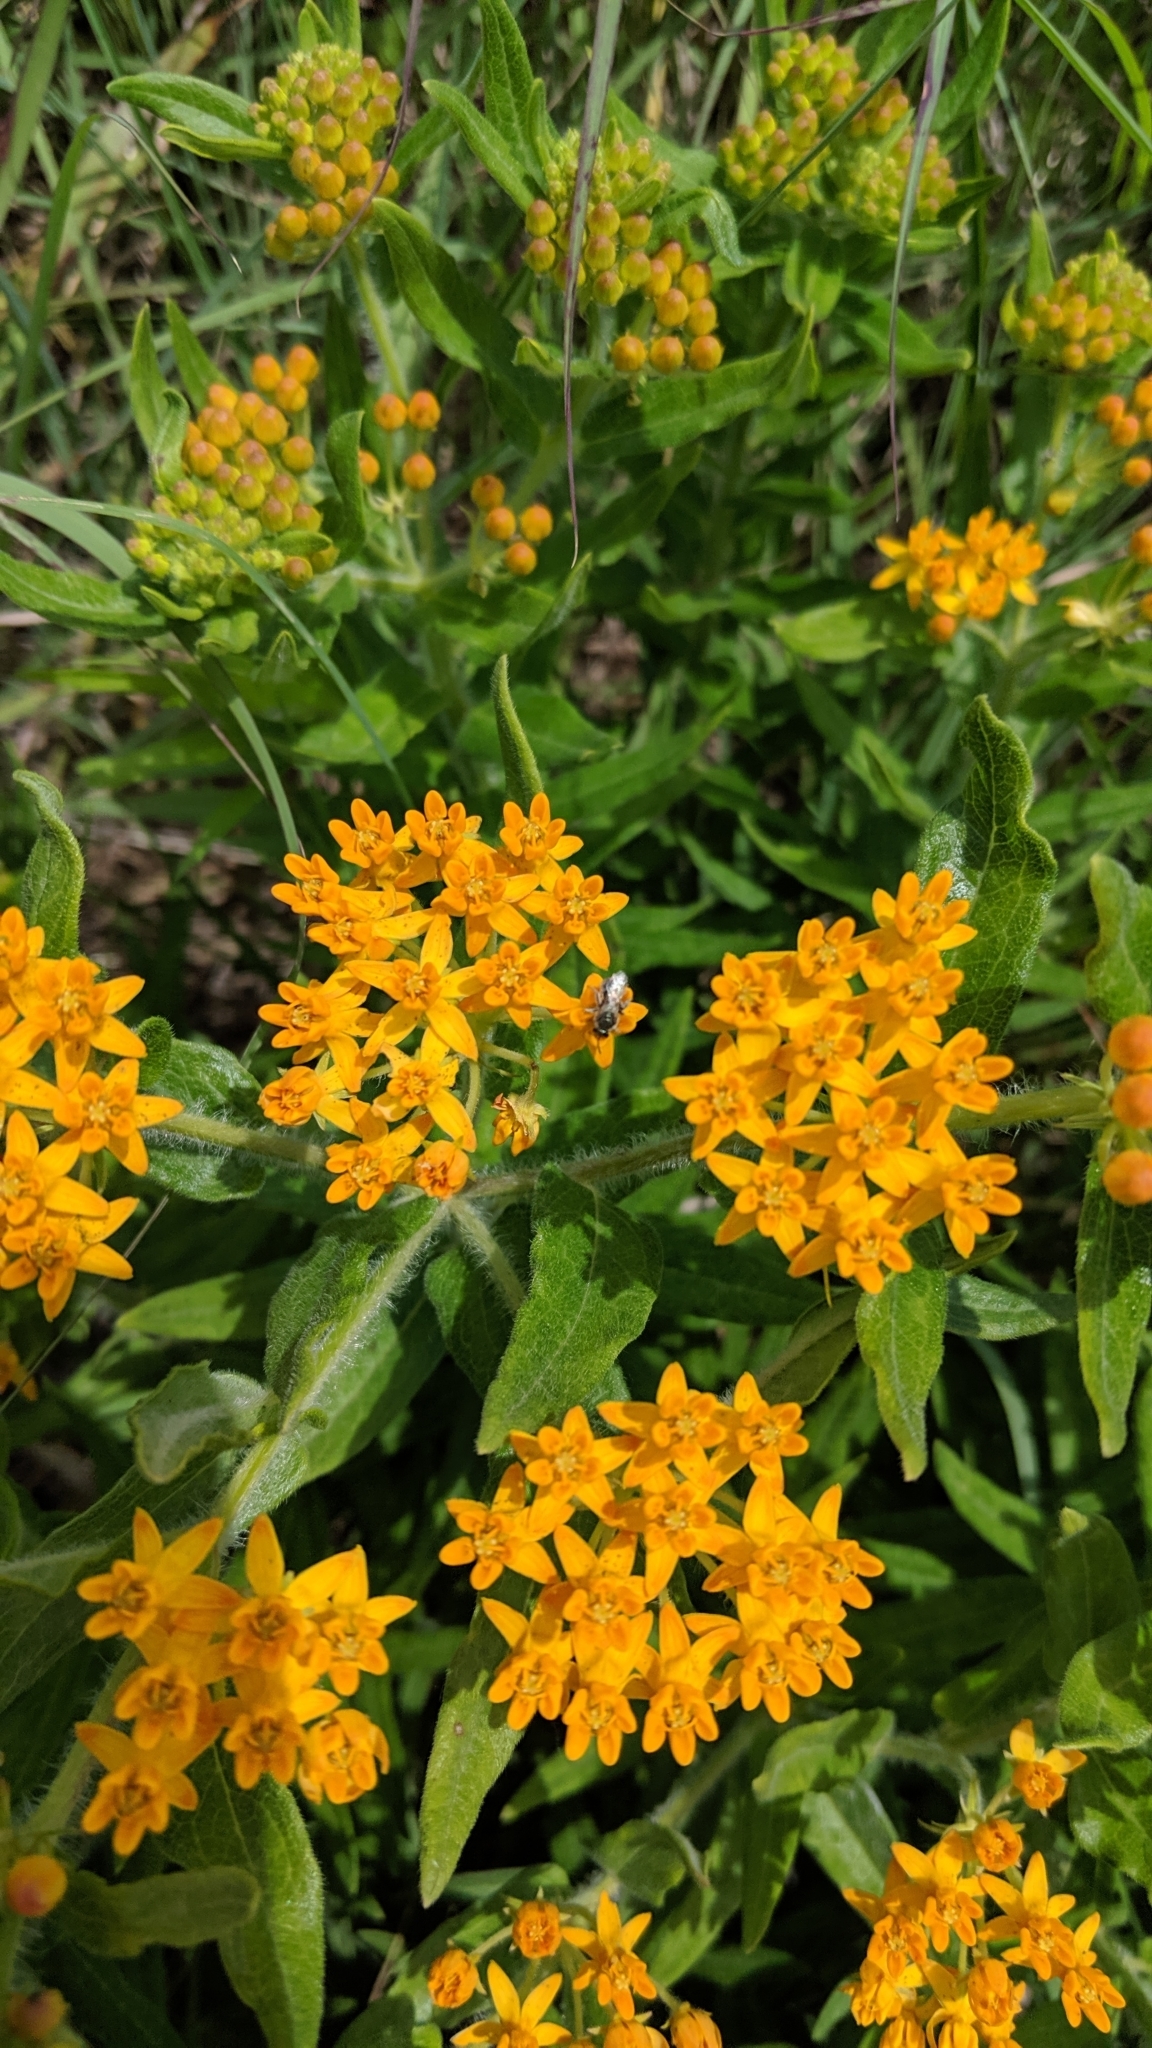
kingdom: Plantae
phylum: Tracheophyta
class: Magnoliopsida
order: Gentianales
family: Apocynaceae
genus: Asclepias
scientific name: Asclepias tuberosa
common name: Butterfly milkweed
